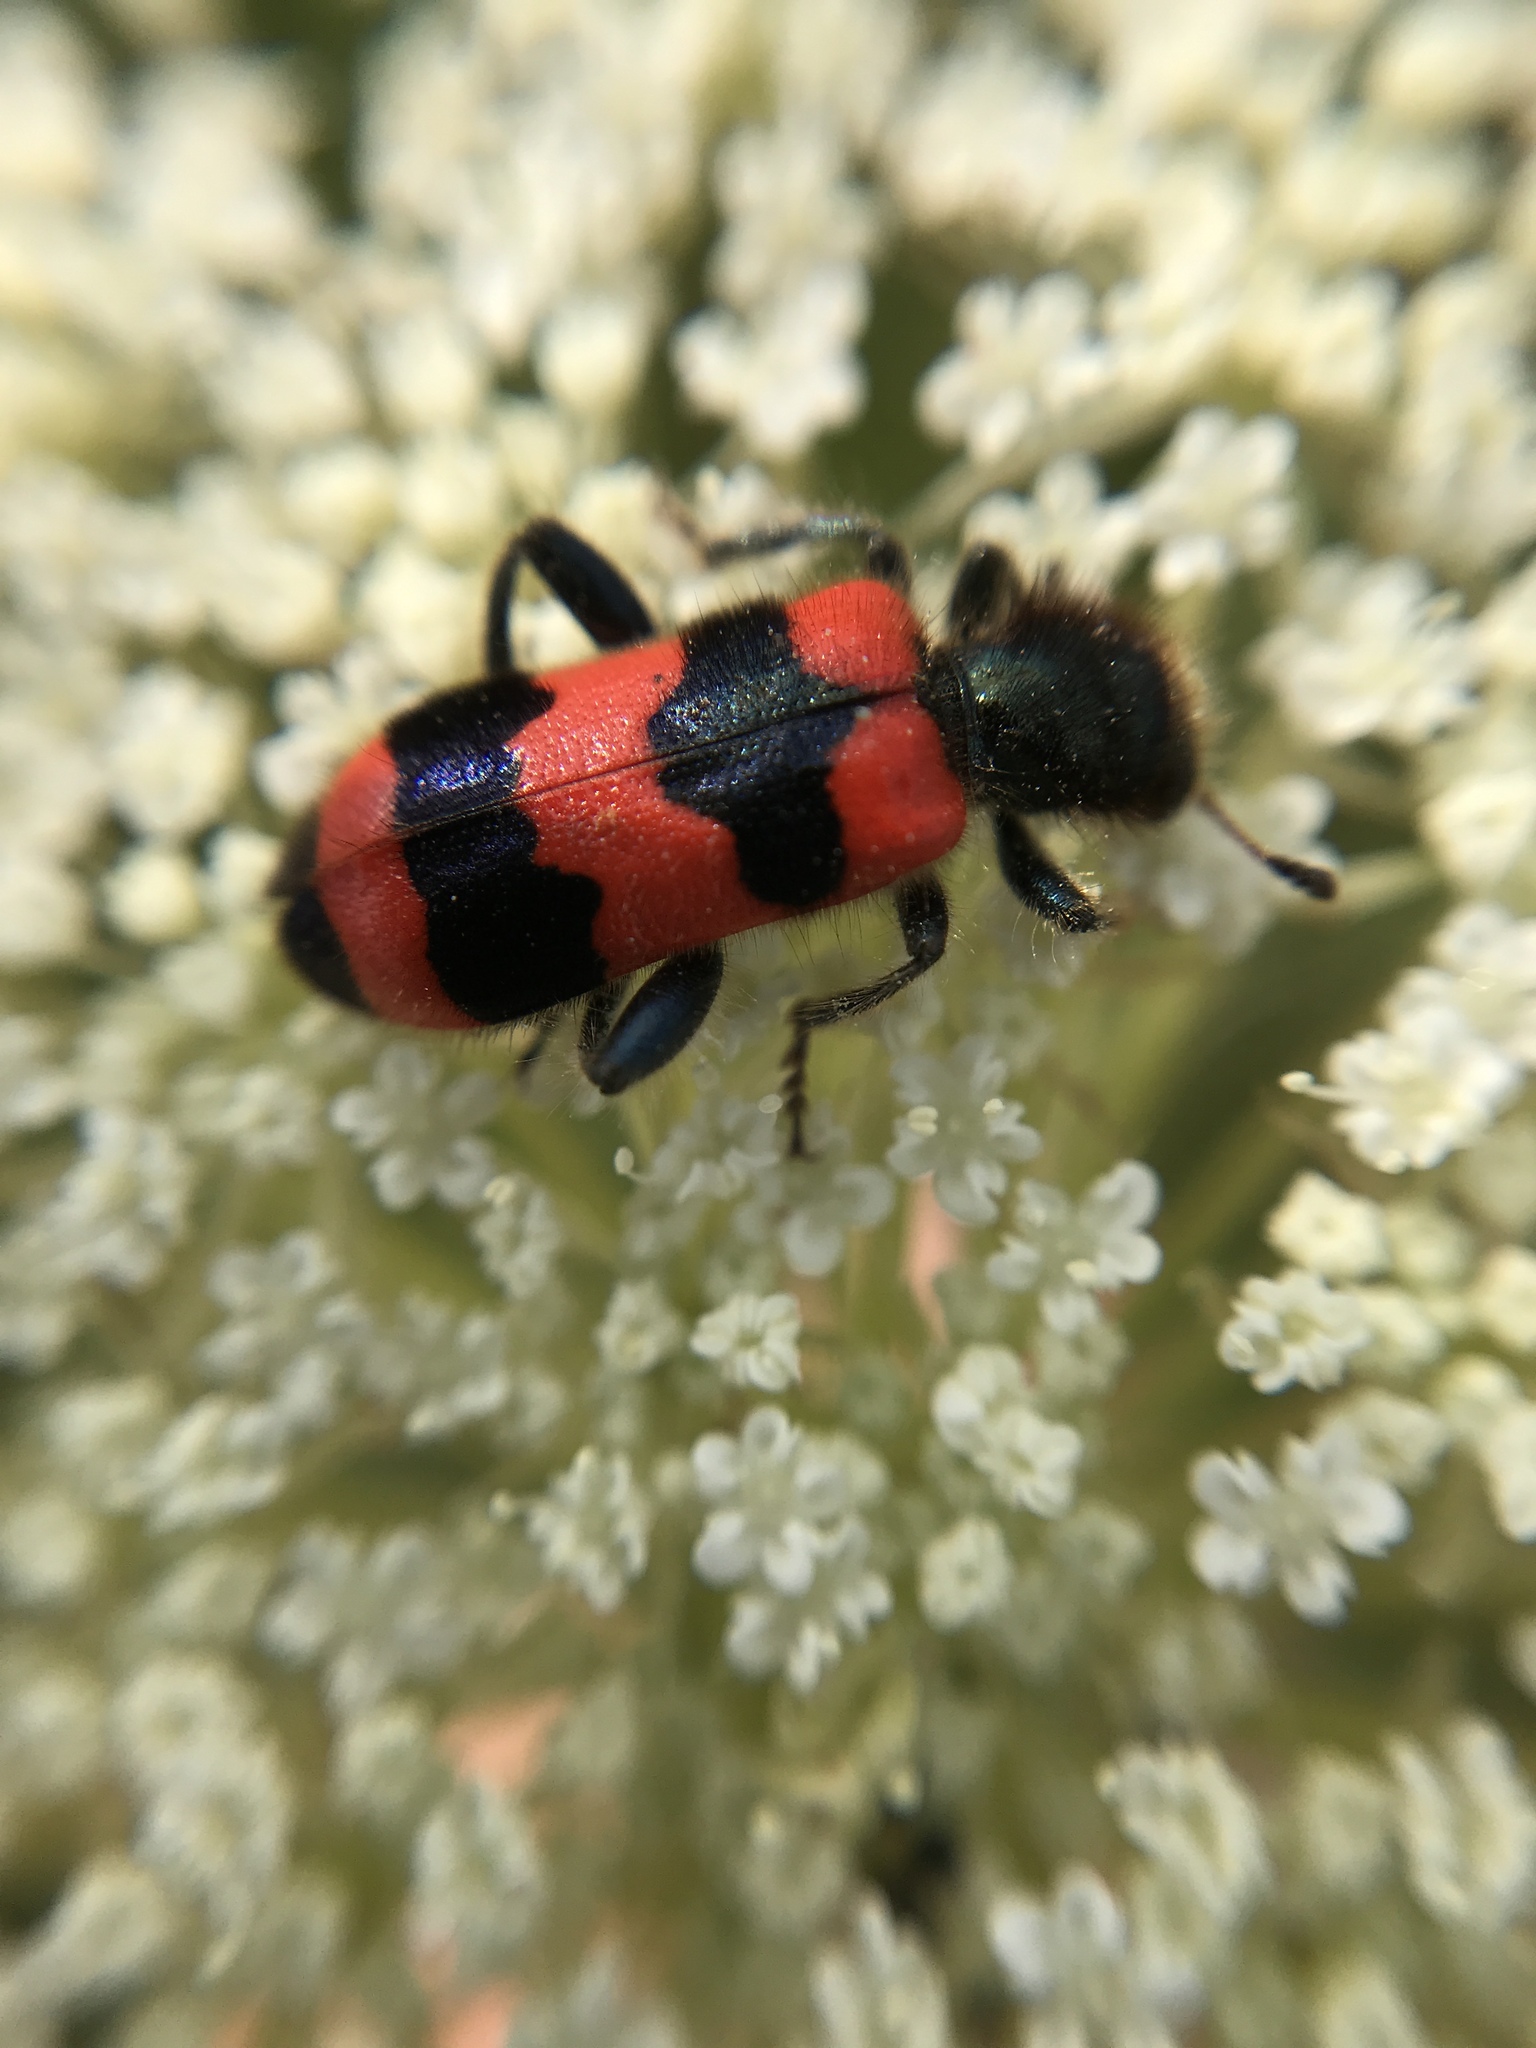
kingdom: Animalia
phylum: Arthropoda
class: Insecta
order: Coleoptera
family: Cleridae
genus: Trichodes
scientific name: Trichodes apiarius
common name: Bee-eating beetle
